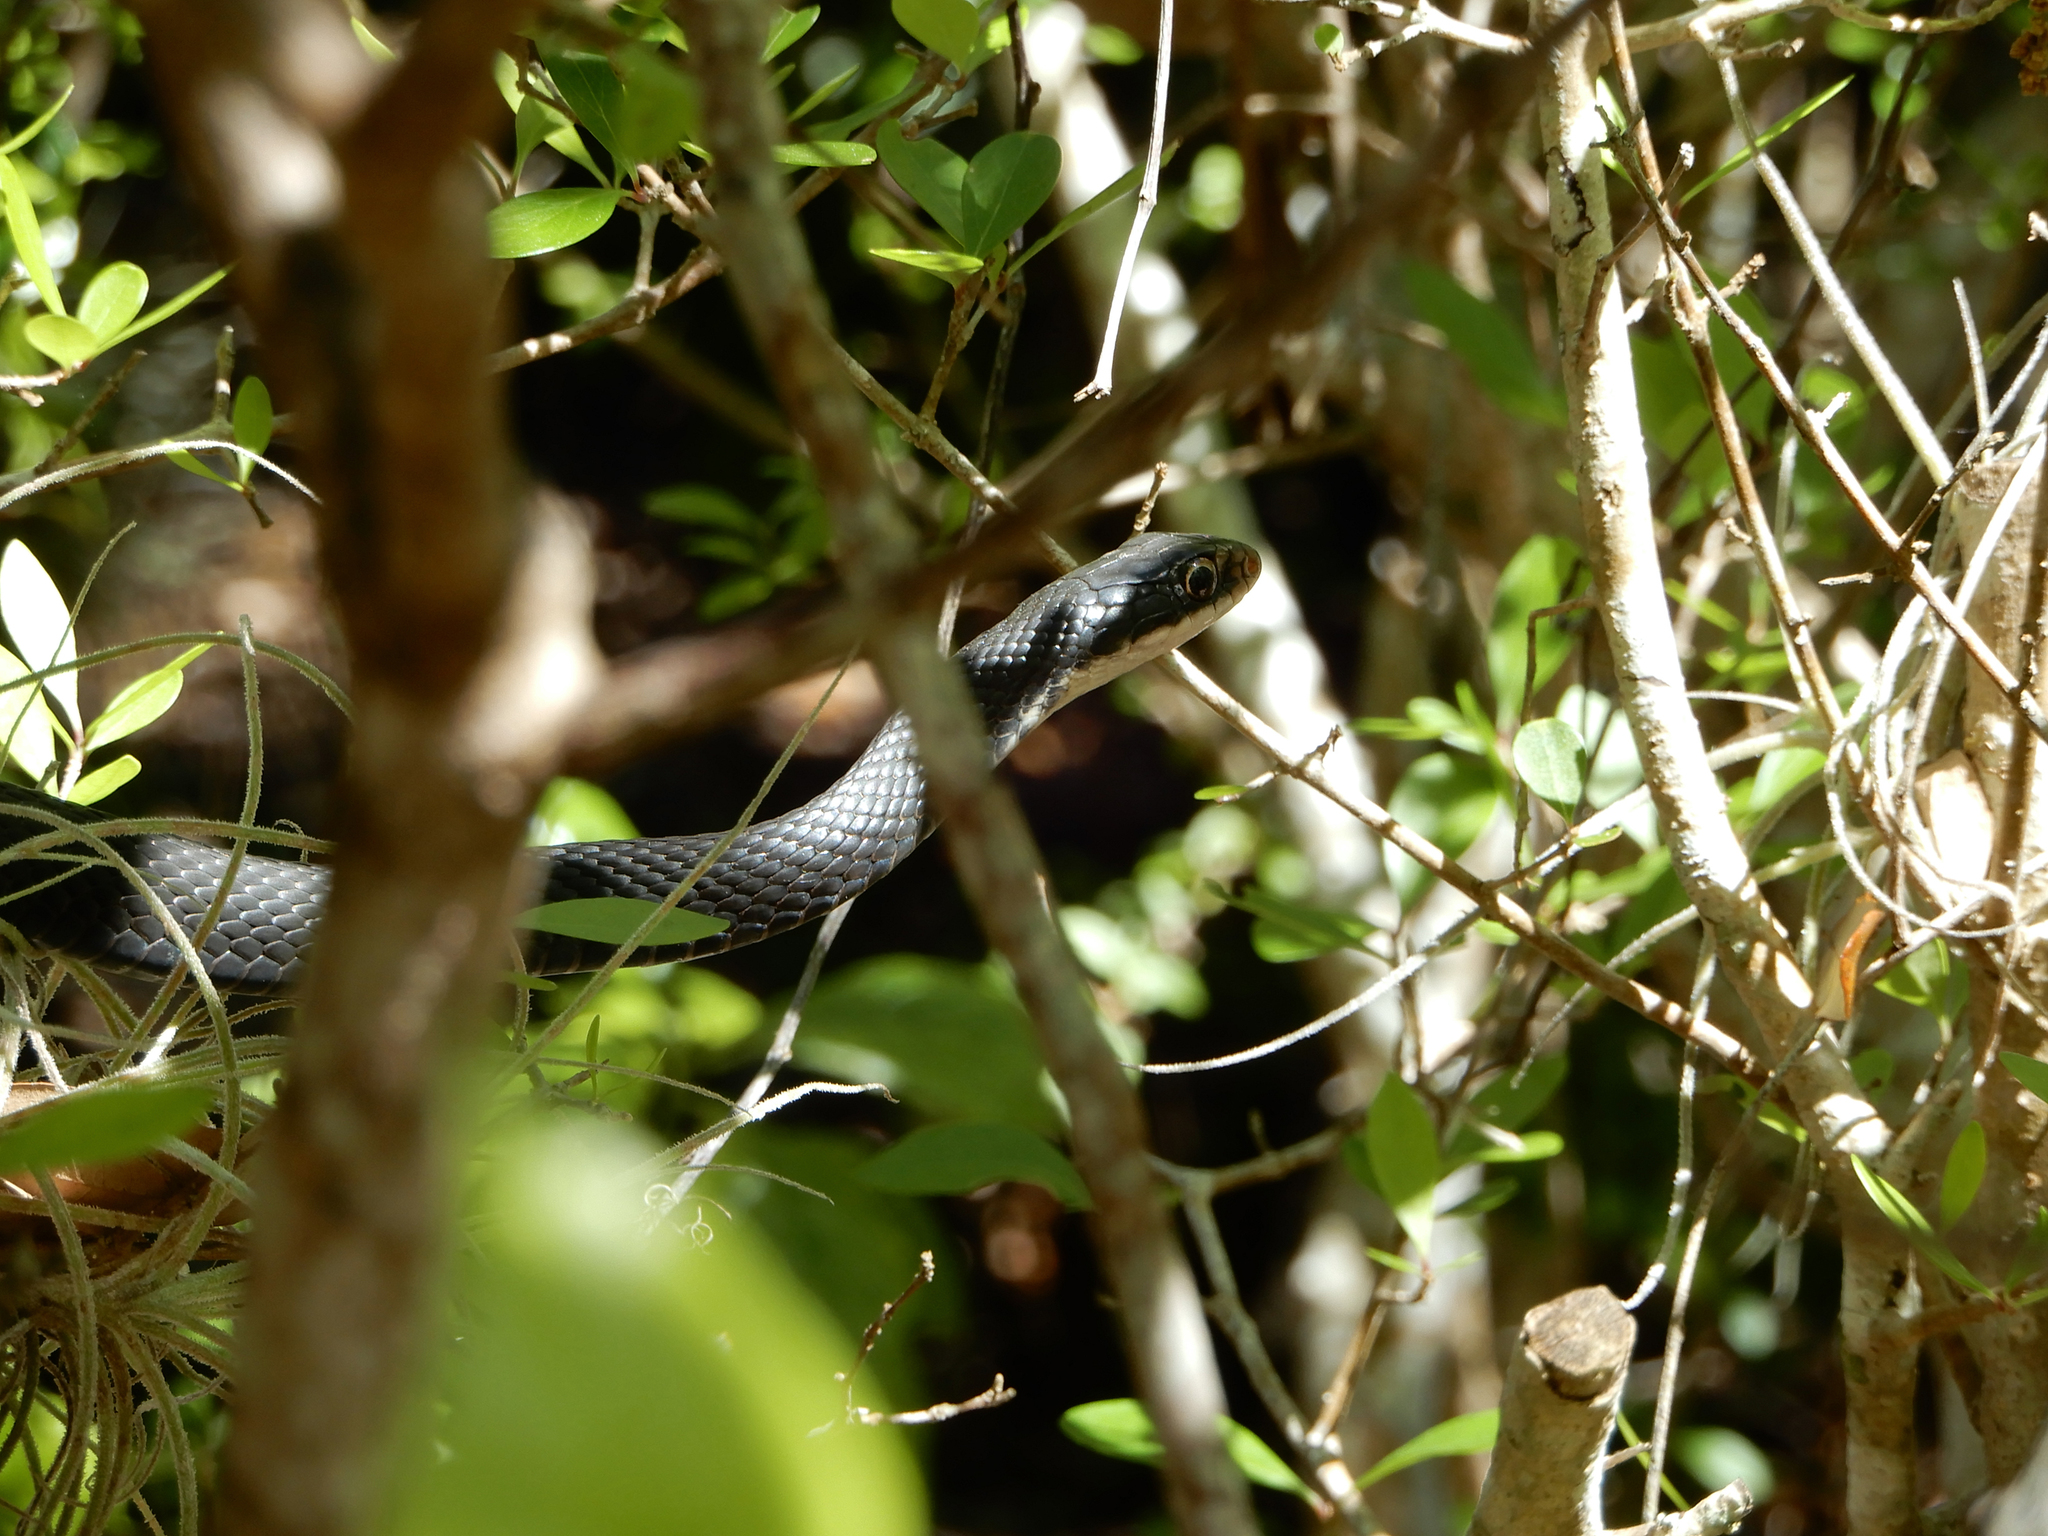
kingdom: Animalia
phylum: Chordata
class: Squamata
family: Colubridae
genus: Coluber
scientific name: Coluber constrictor
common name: Eastern racer
